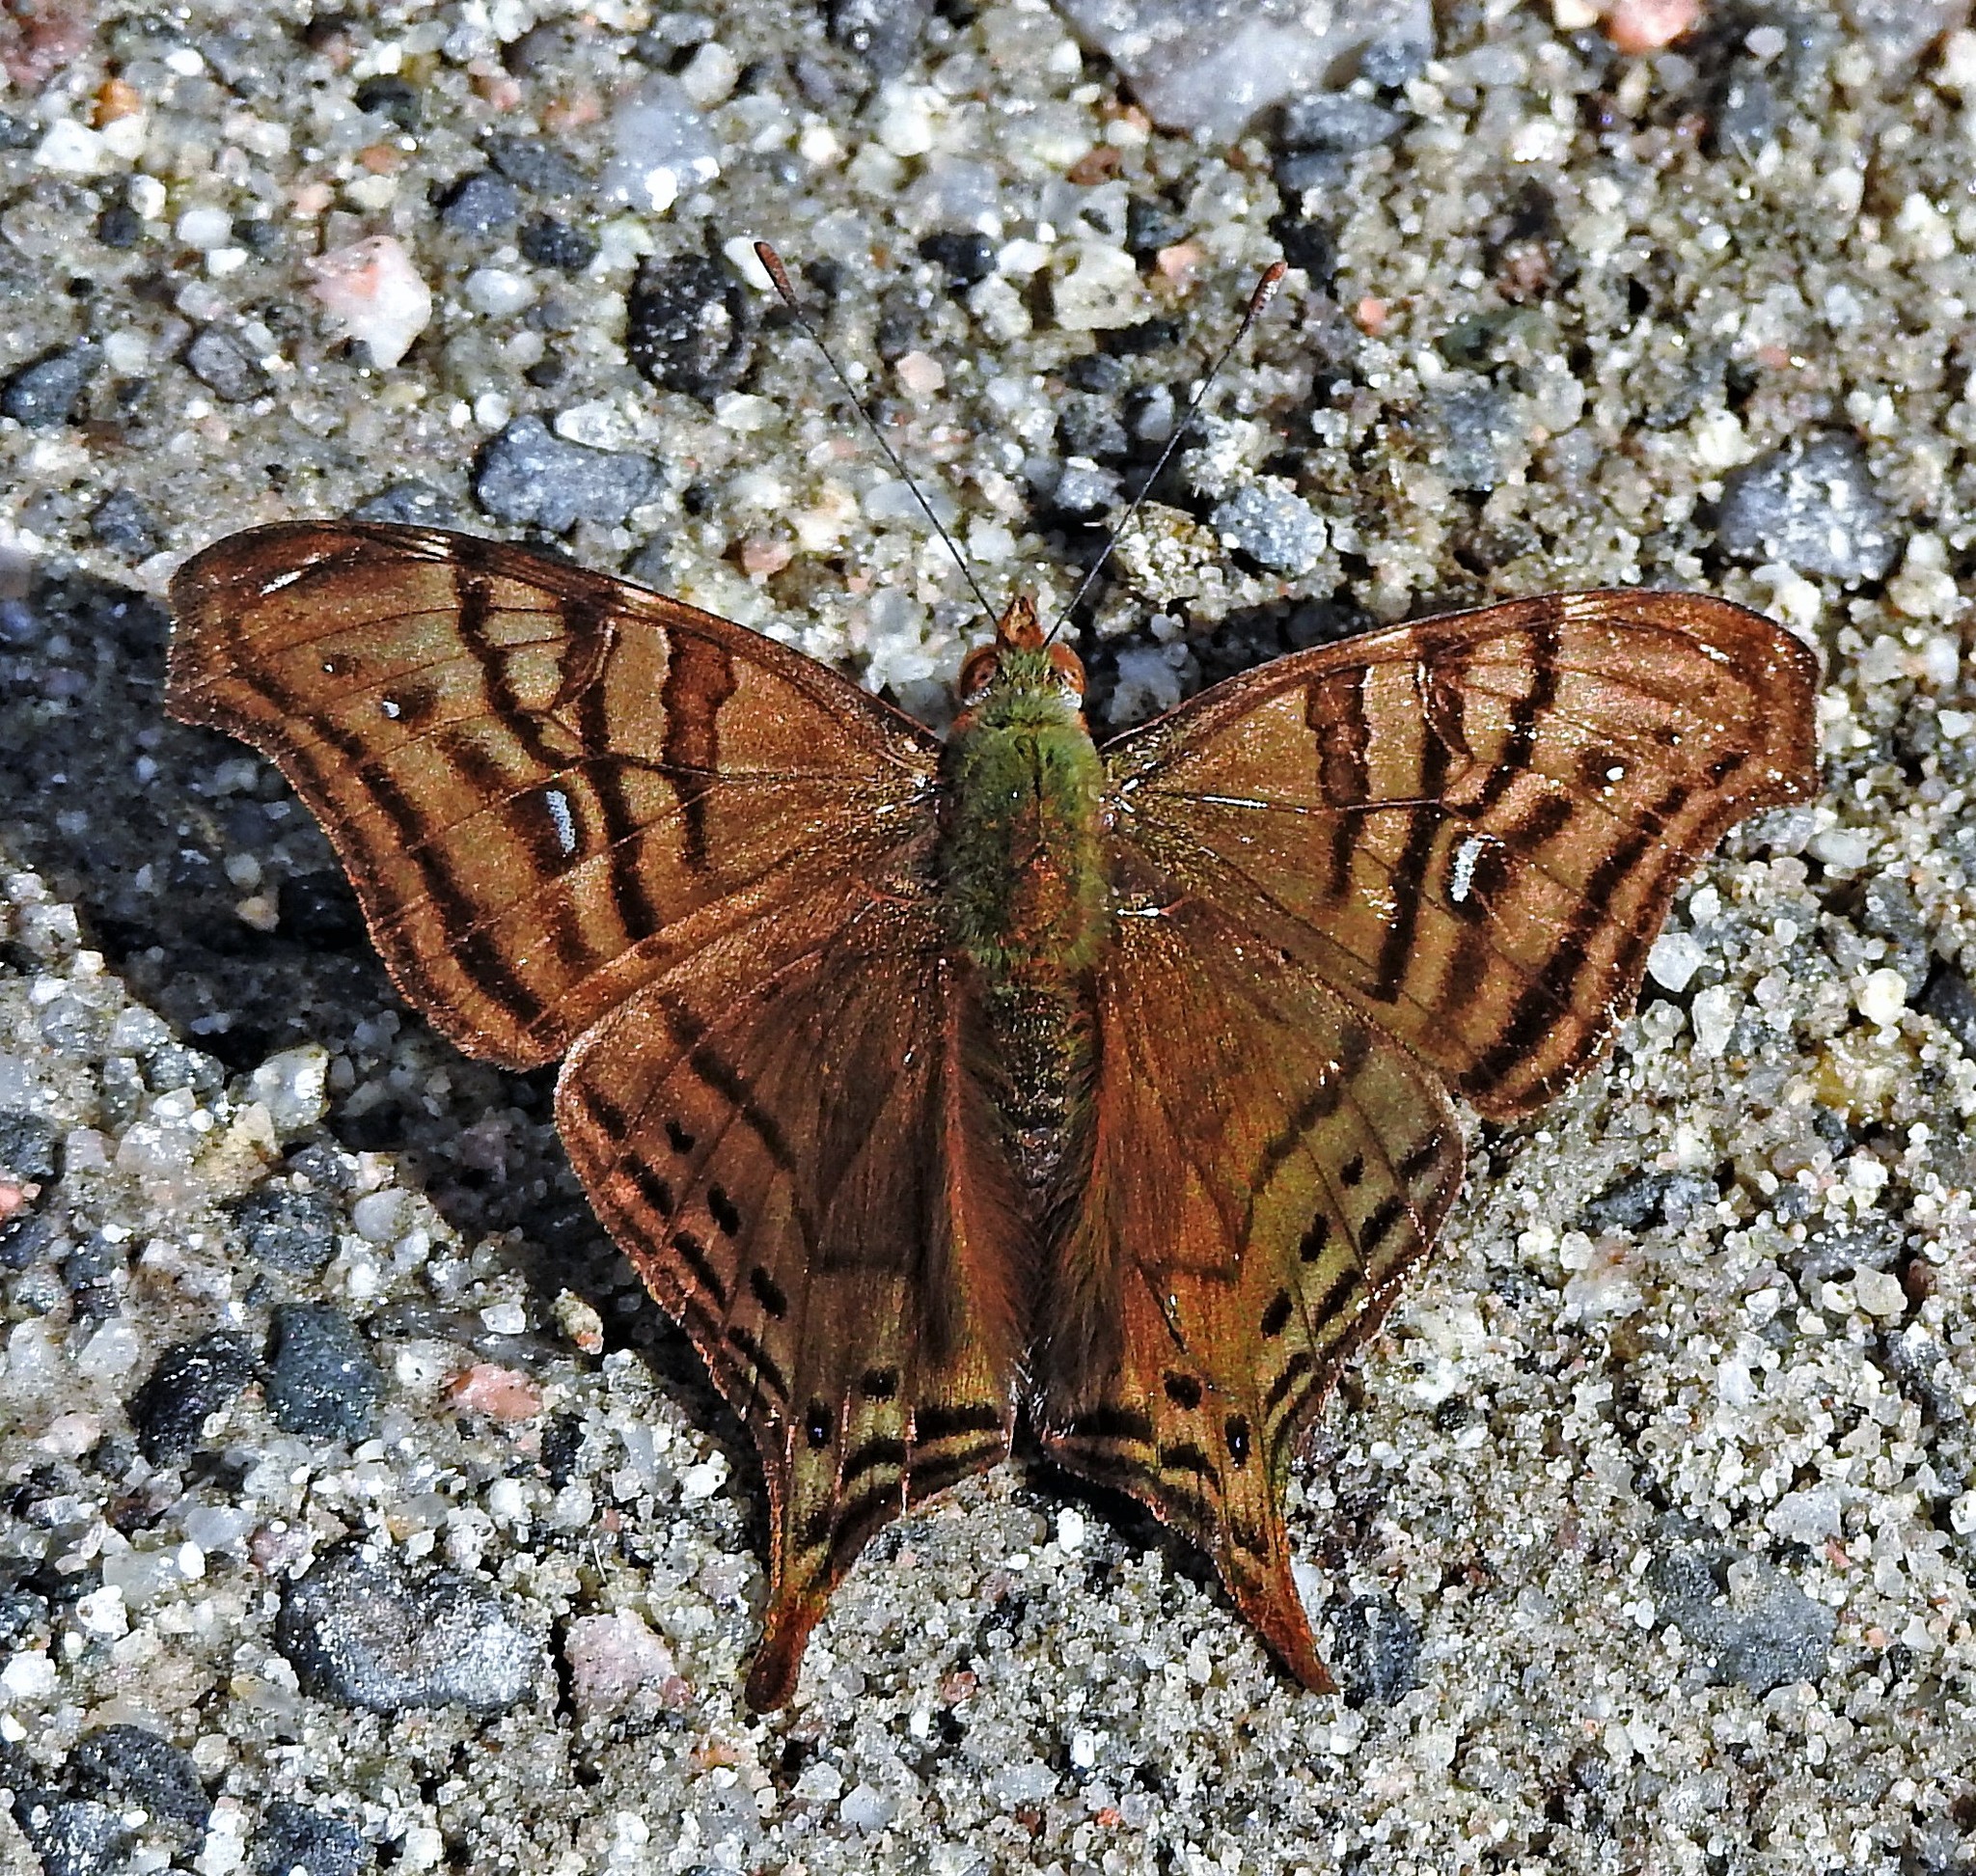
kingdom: Animalia
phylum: Arthropoda
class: Insecta
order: Lepidoptera
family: Nymphalidae
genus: Hypanartia
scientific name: Hypanartia dione
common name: Banded mapwing
